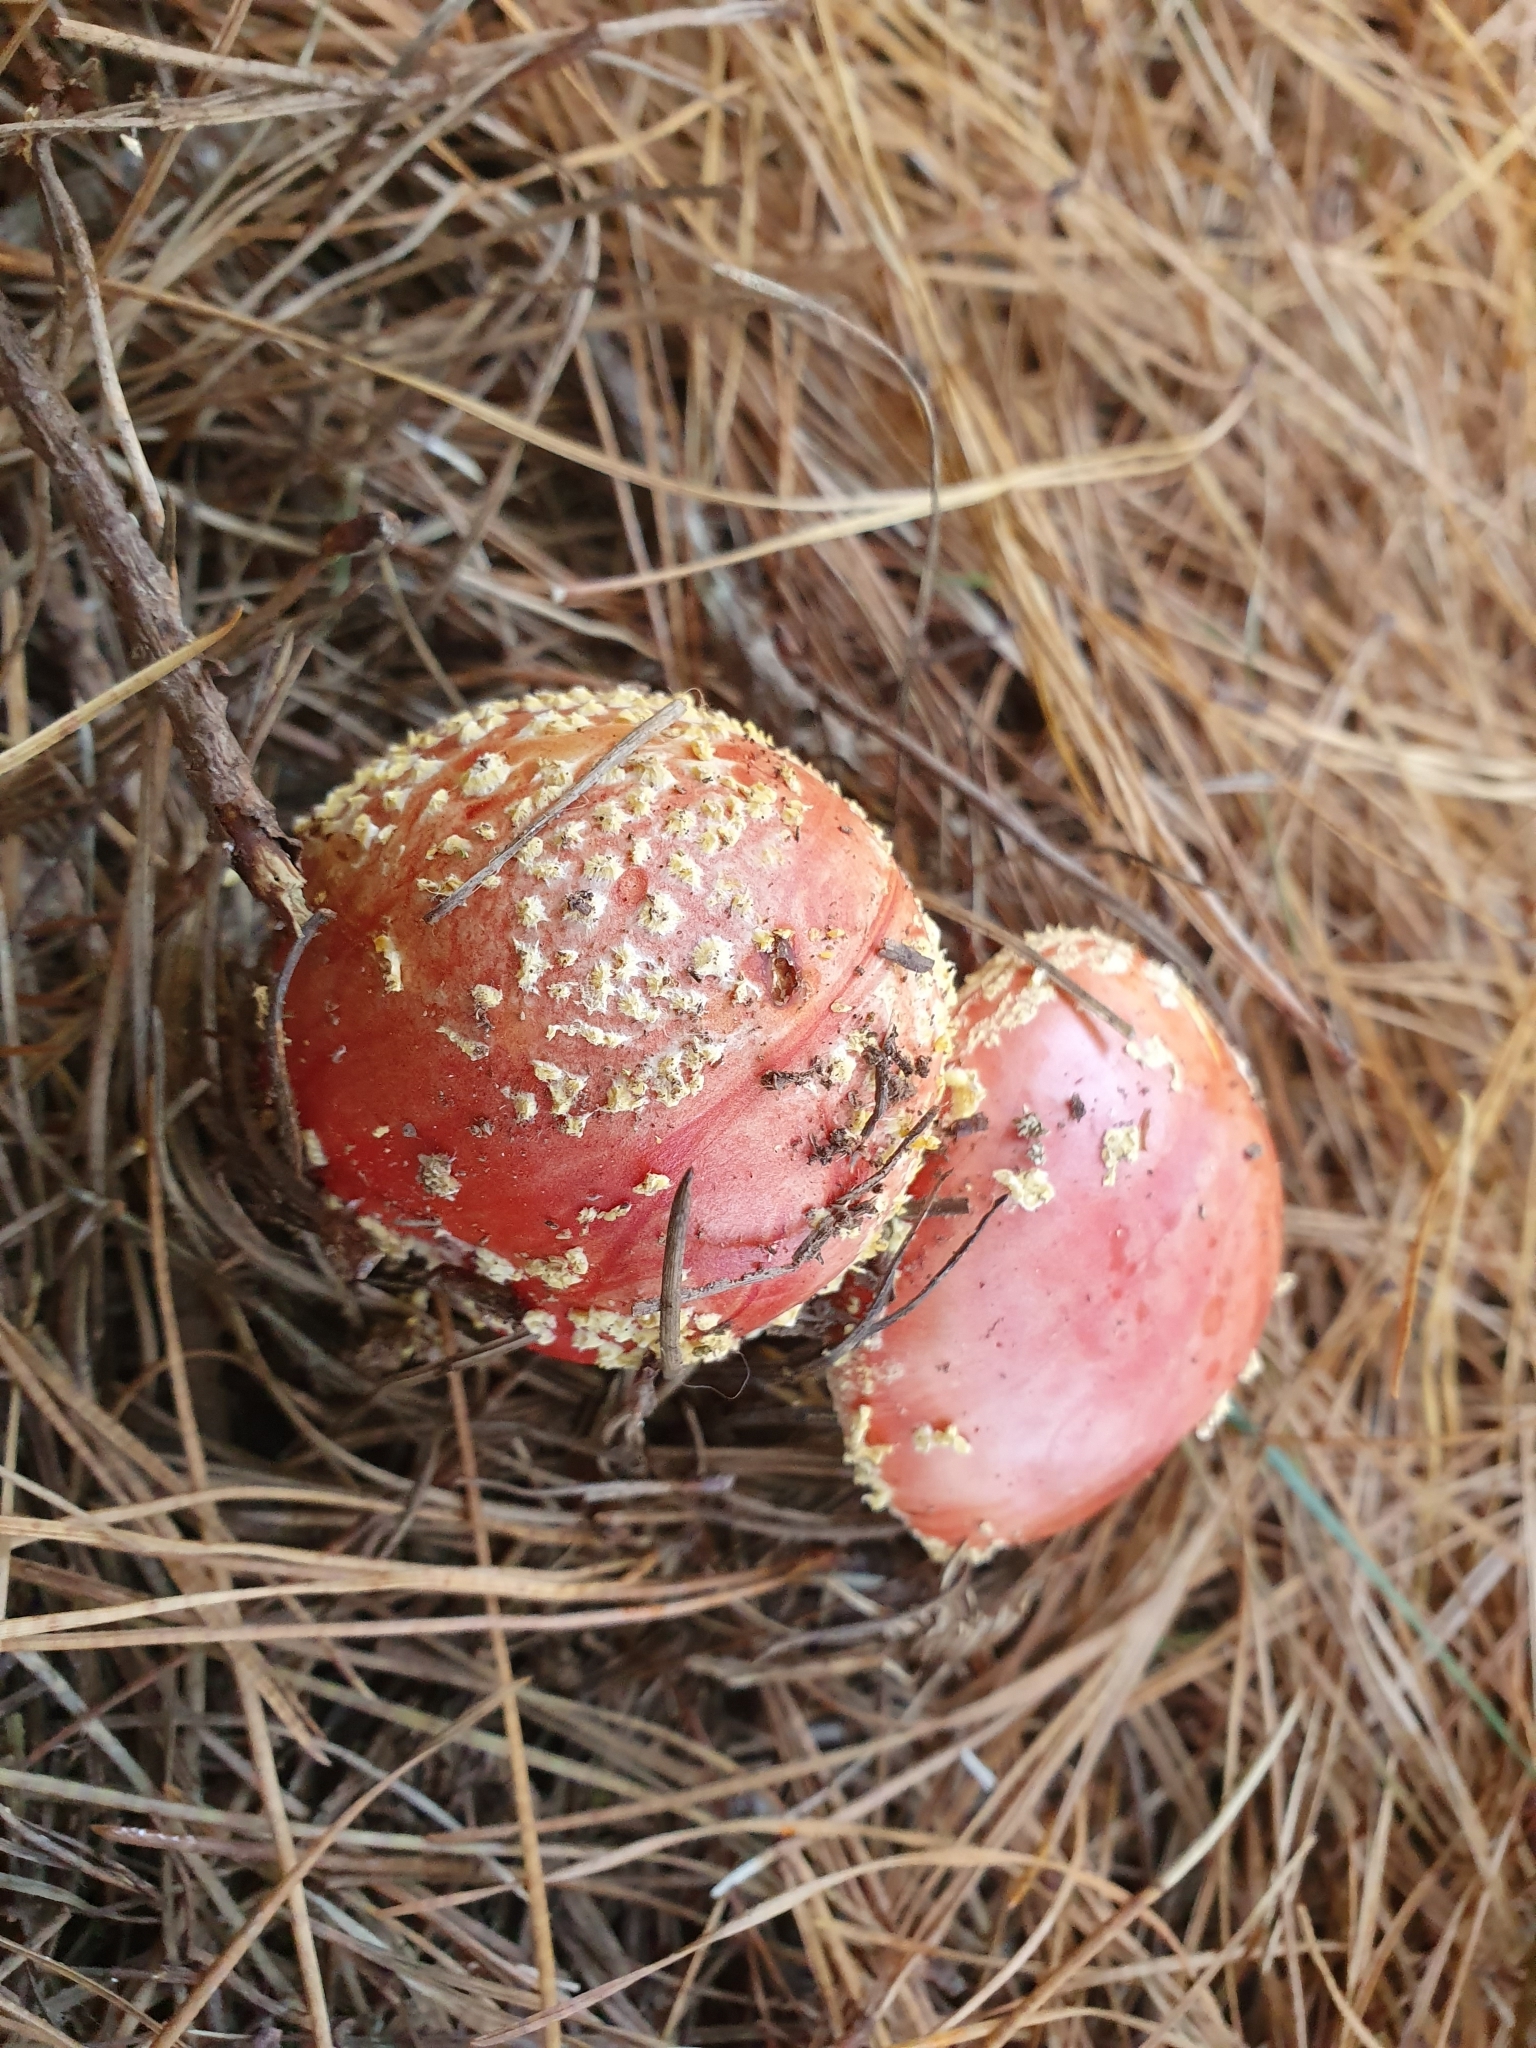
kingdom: Fungi
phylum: Basidiomycota
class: Agaricomycetes
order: Agaricales
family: Amanitaceae
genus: Amanita
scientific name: Amanita muscaria
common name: Fly agaric
